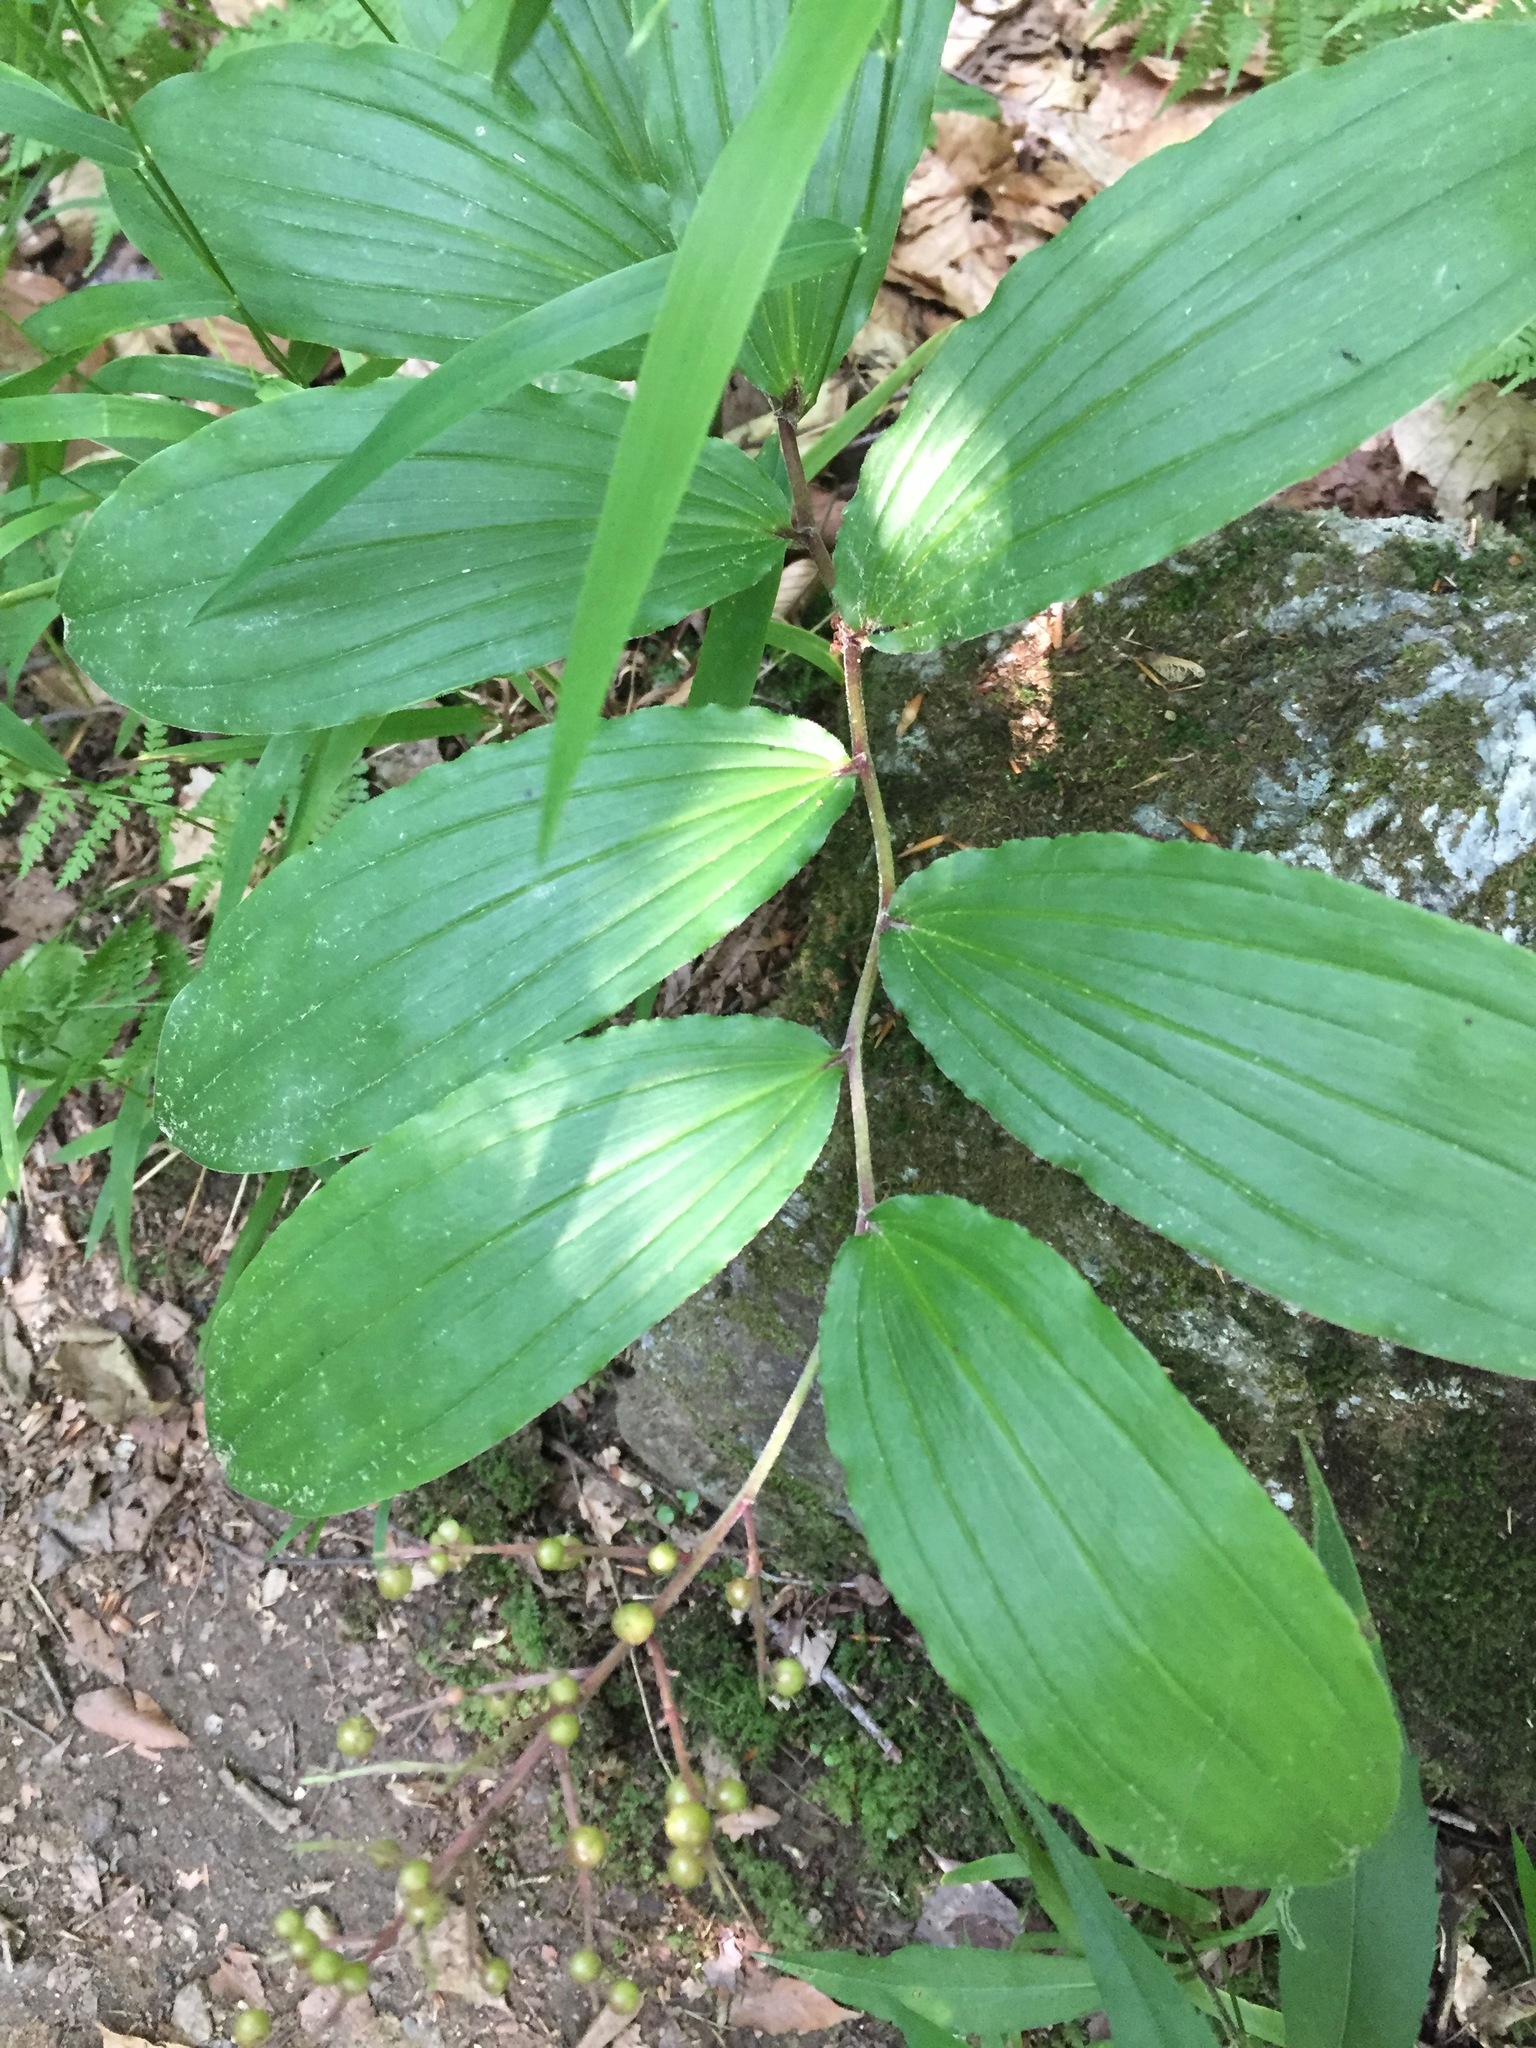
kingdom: Plantae
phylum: Tracheophyta
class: Liliopsida
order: Asparagales
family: Asparagaceae
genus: Maianthemum
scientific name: Maianthemum racemosum
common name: False spikenard
